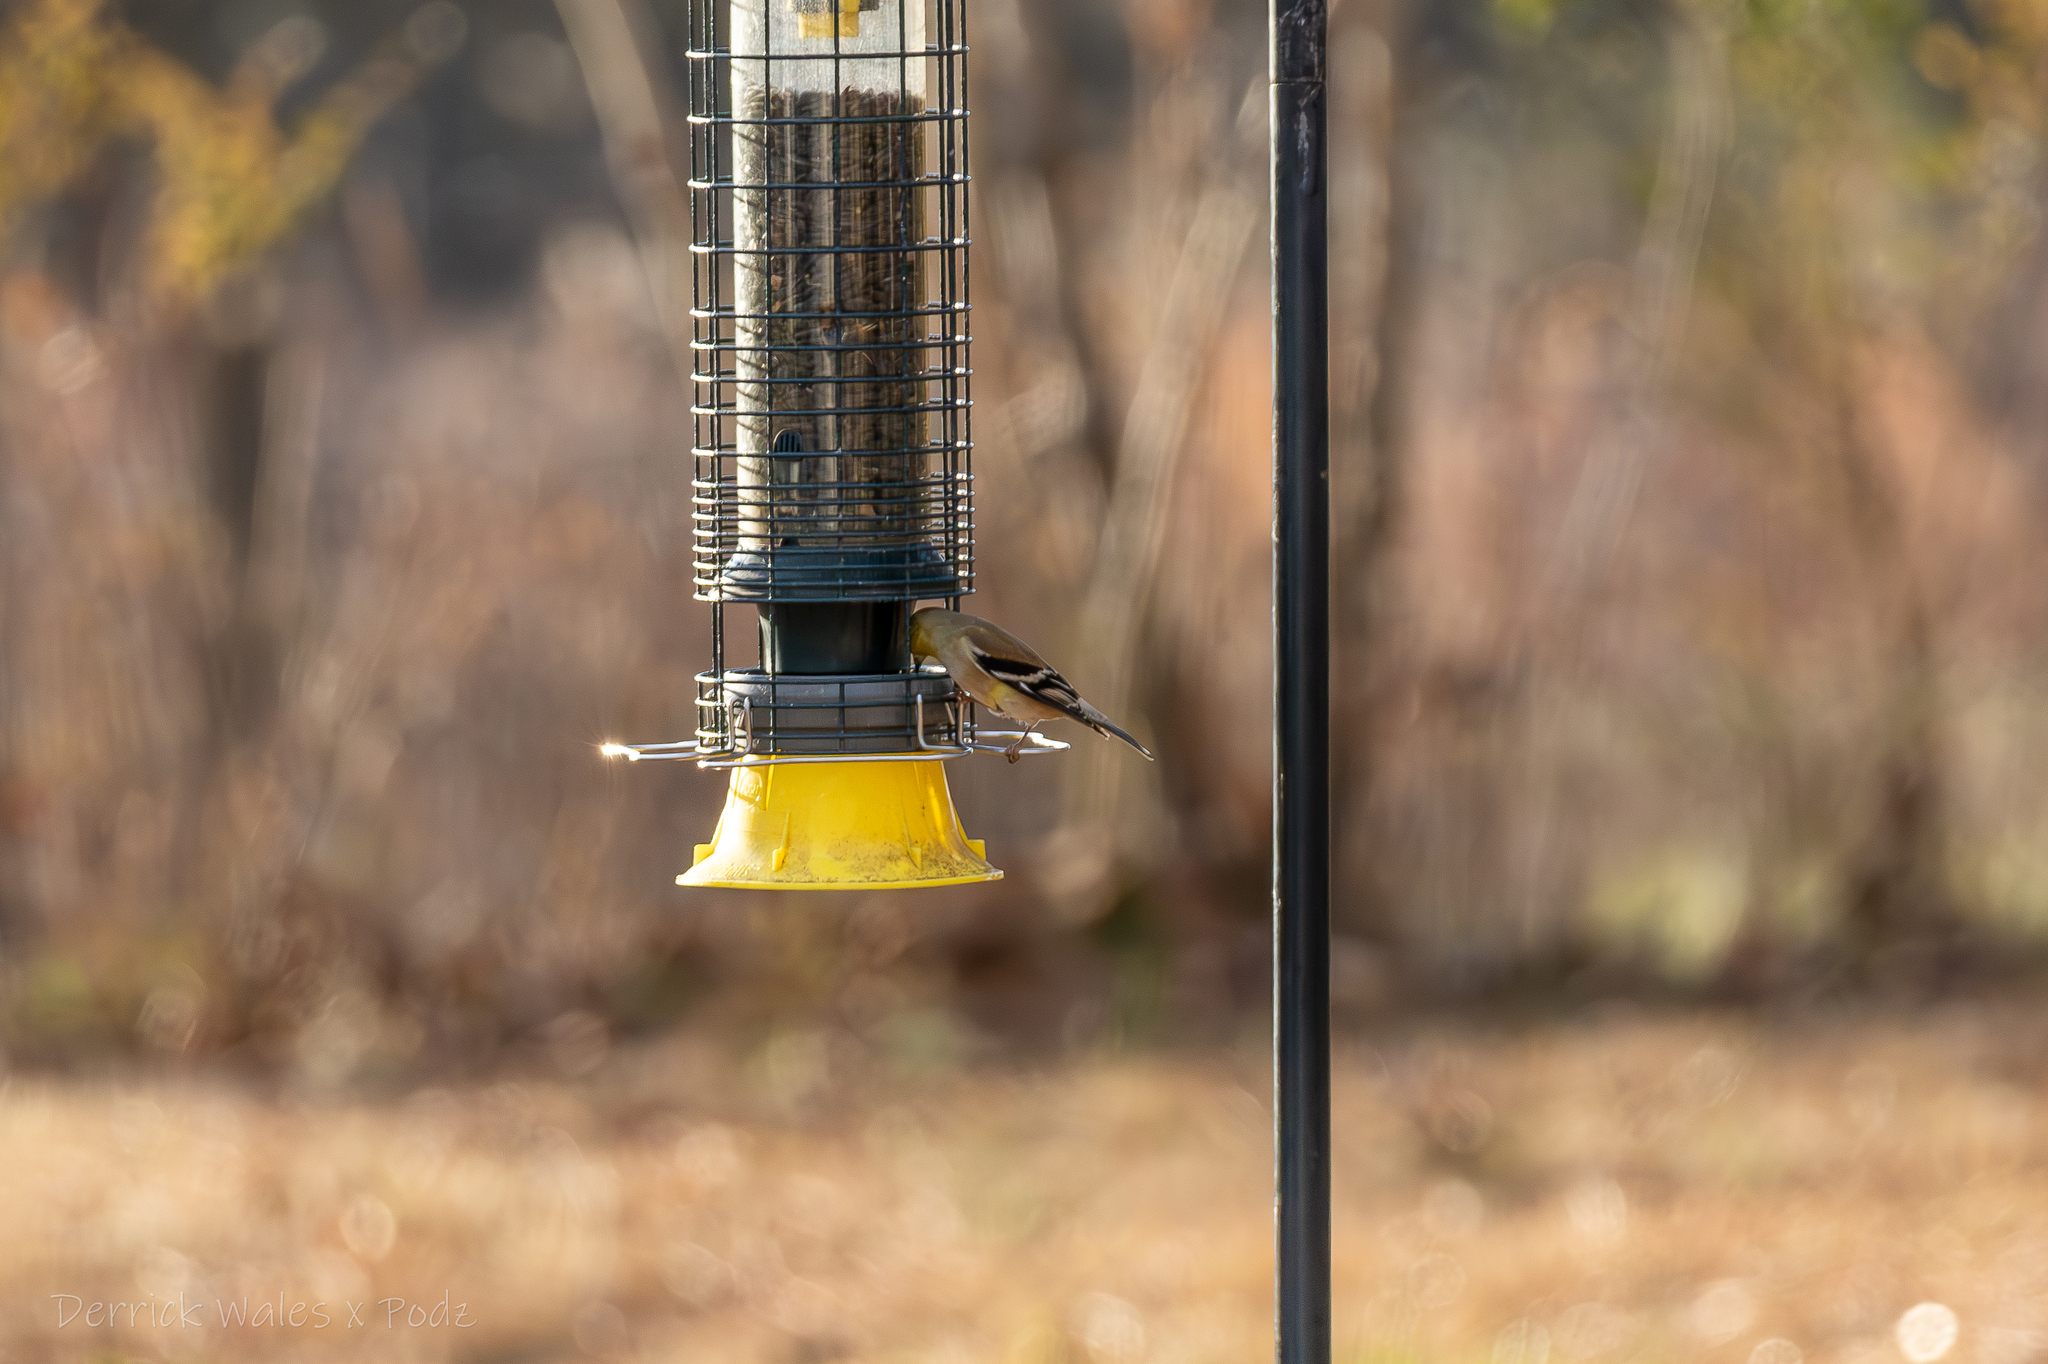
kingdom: Animalia
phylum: Chordata
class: Aves
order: Passeriformes
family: Fringillidae
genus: Spinus
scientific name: Spinus tristis
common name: American goldfinch
